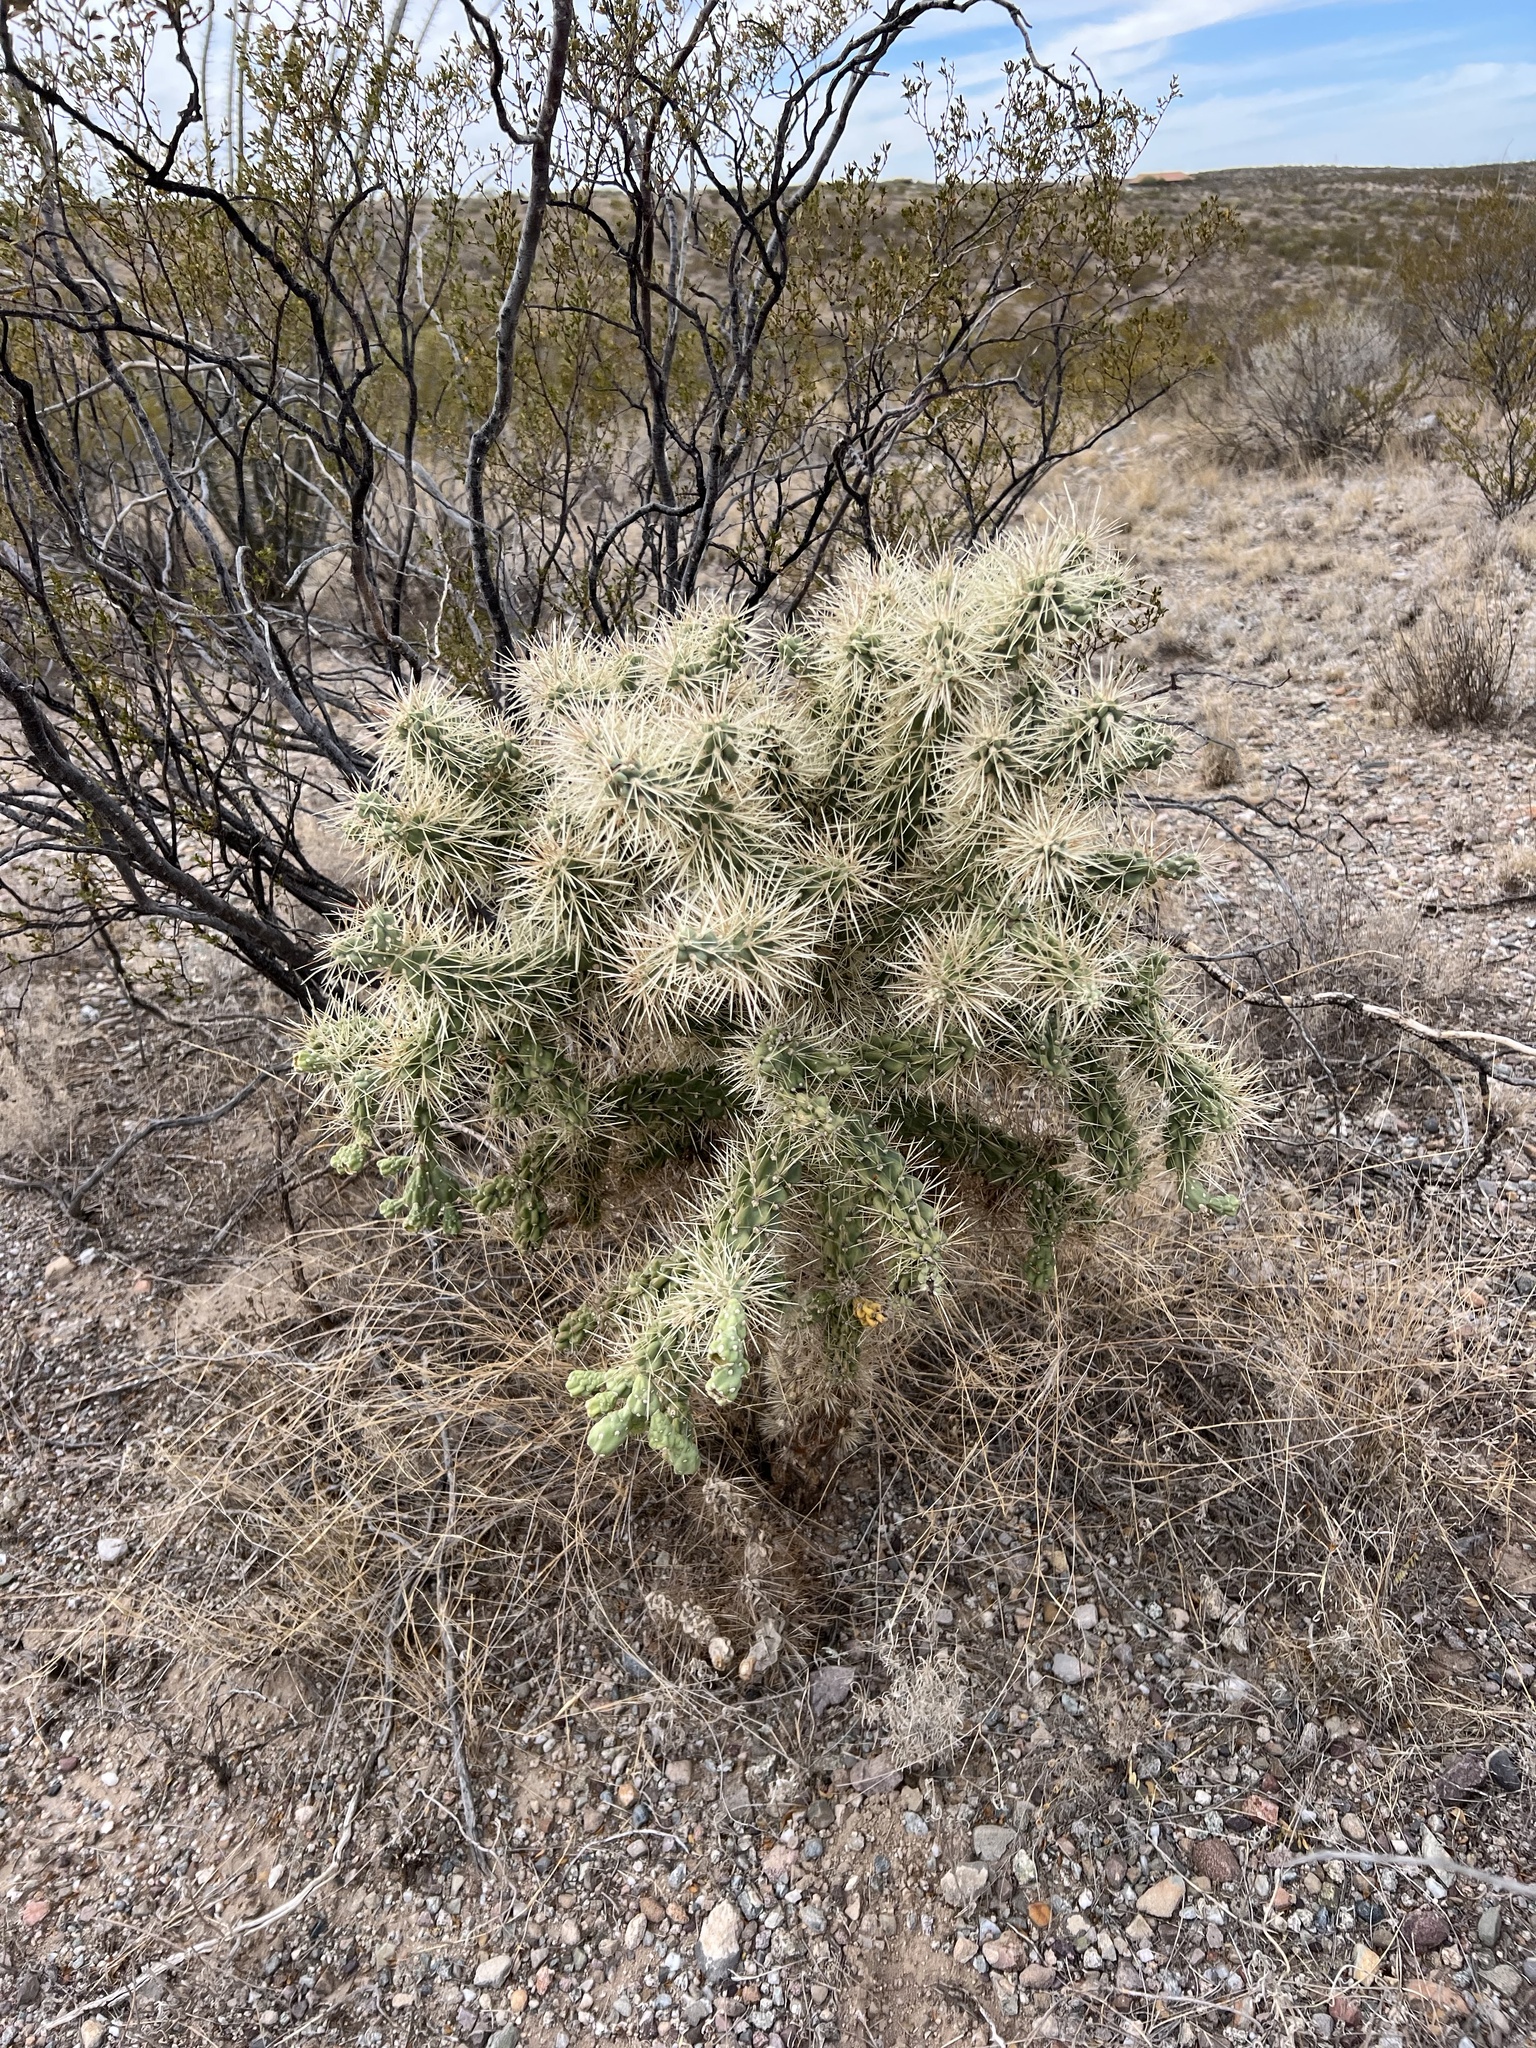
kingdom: Plantae
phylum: Tracheophyta
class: Magnoliopsida
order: Caryophyllales
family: Cactaceae
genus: Cylindropuntia
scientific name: Cylindropuntia fulgida
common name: Jumping cholla
